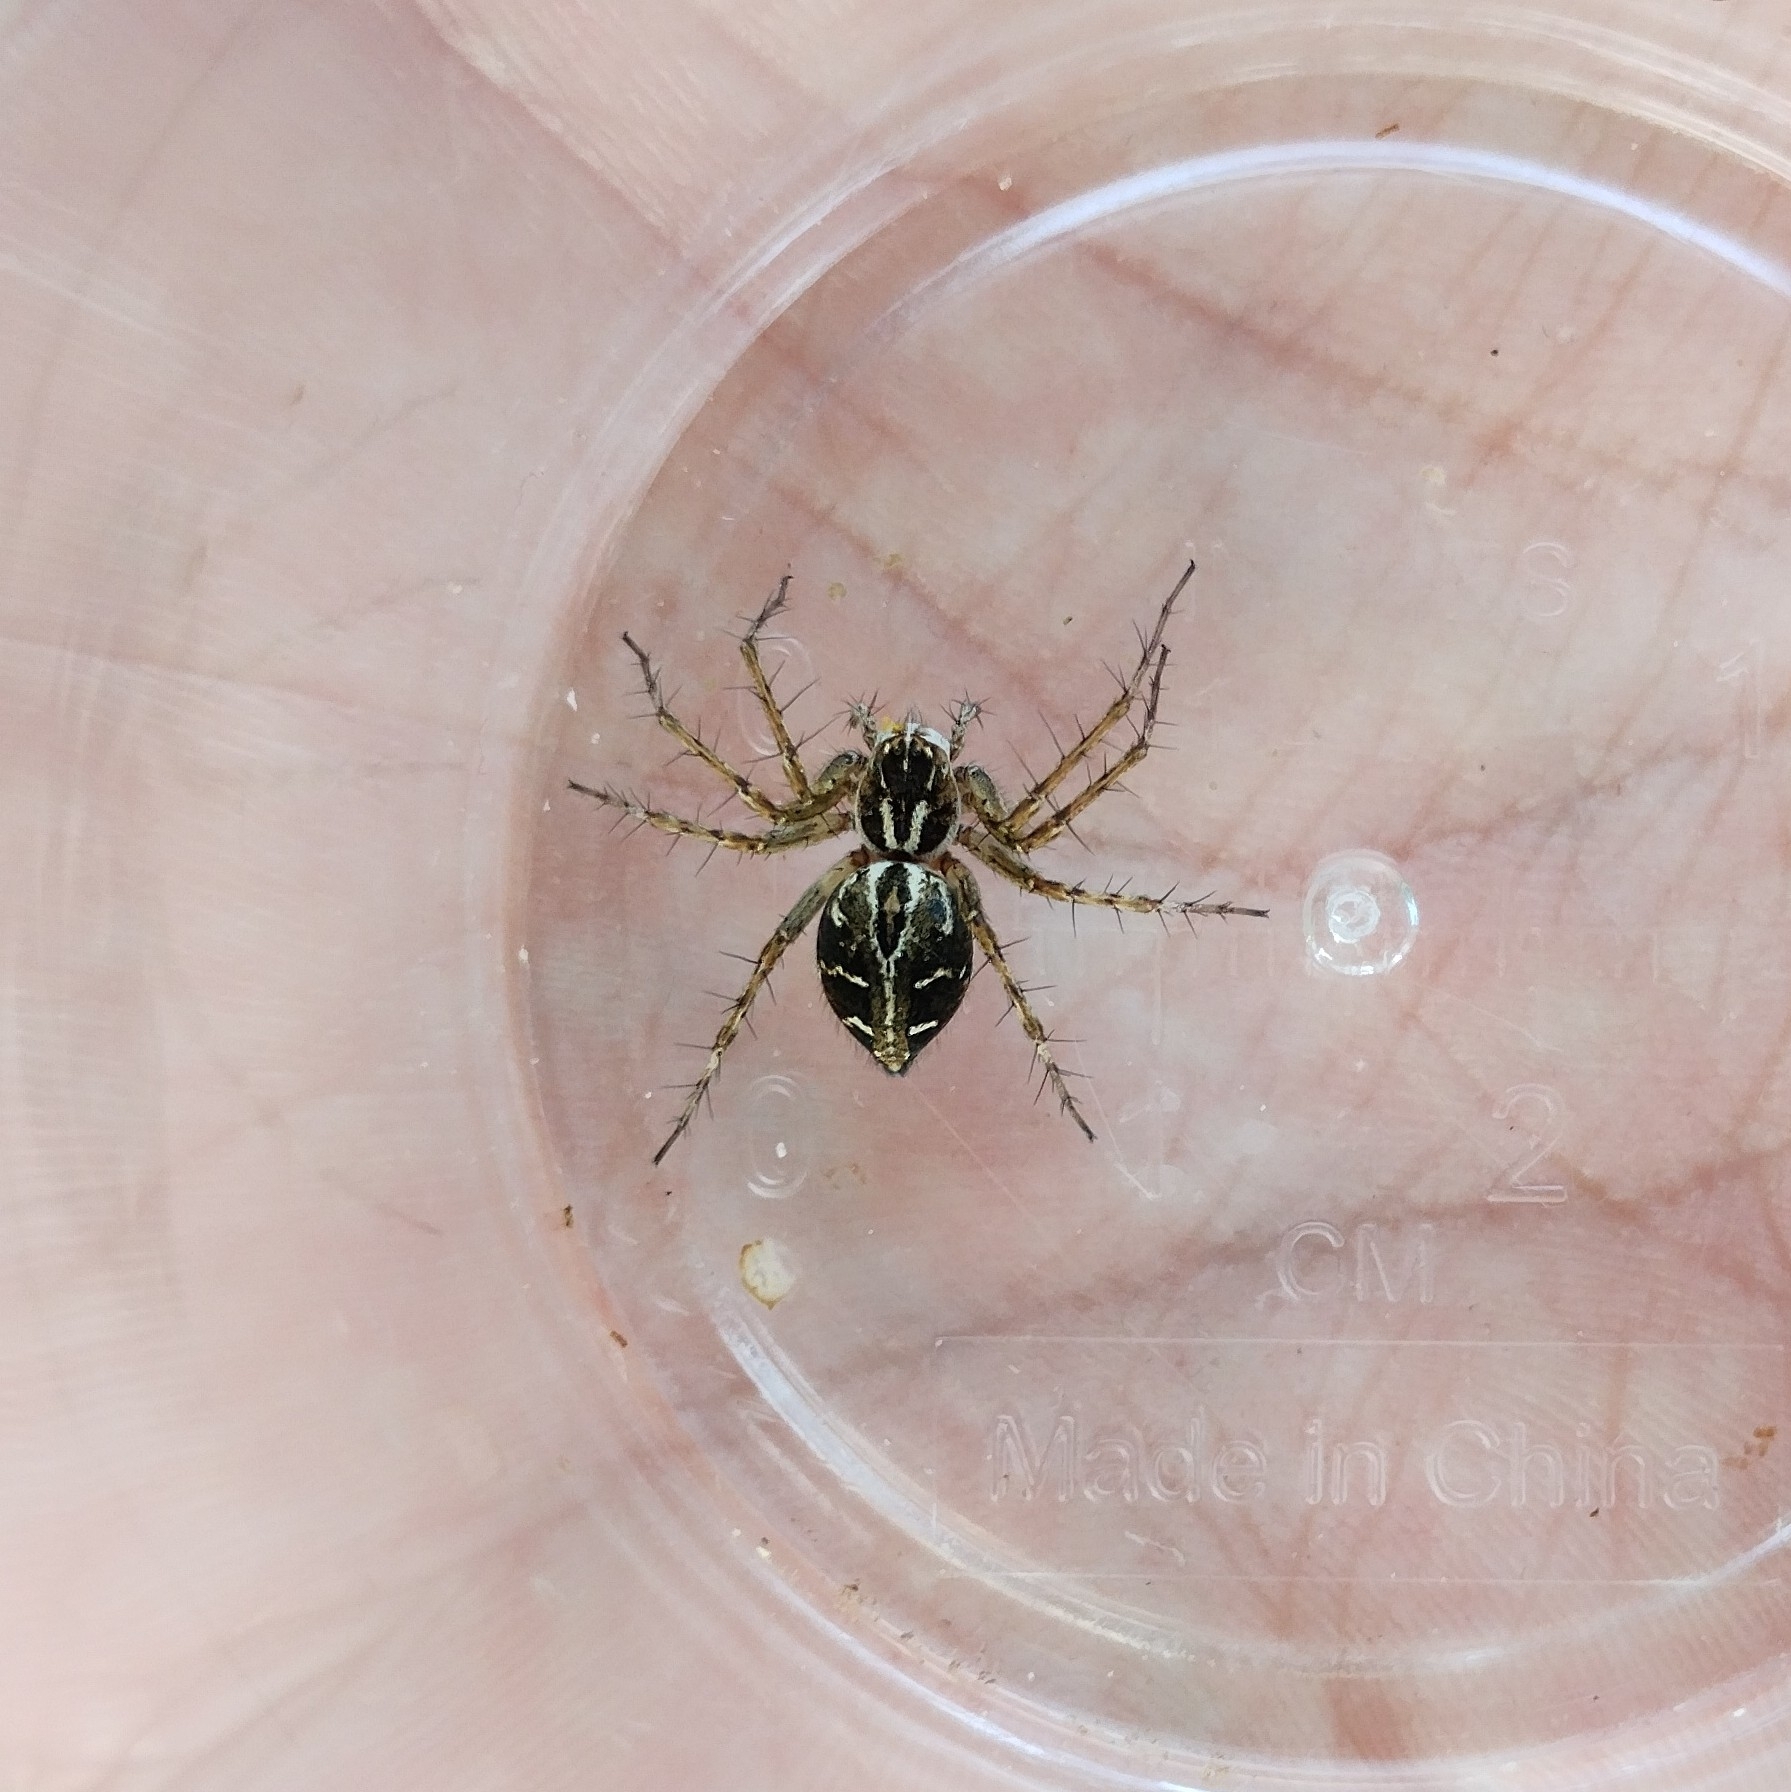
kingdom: Animalia
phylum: Arthropoda
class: Arachnida
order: Araneae
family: Oxyopidae
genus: Oxyopes
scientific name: Oxyopes heterophthalmus
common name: Lynx spider
